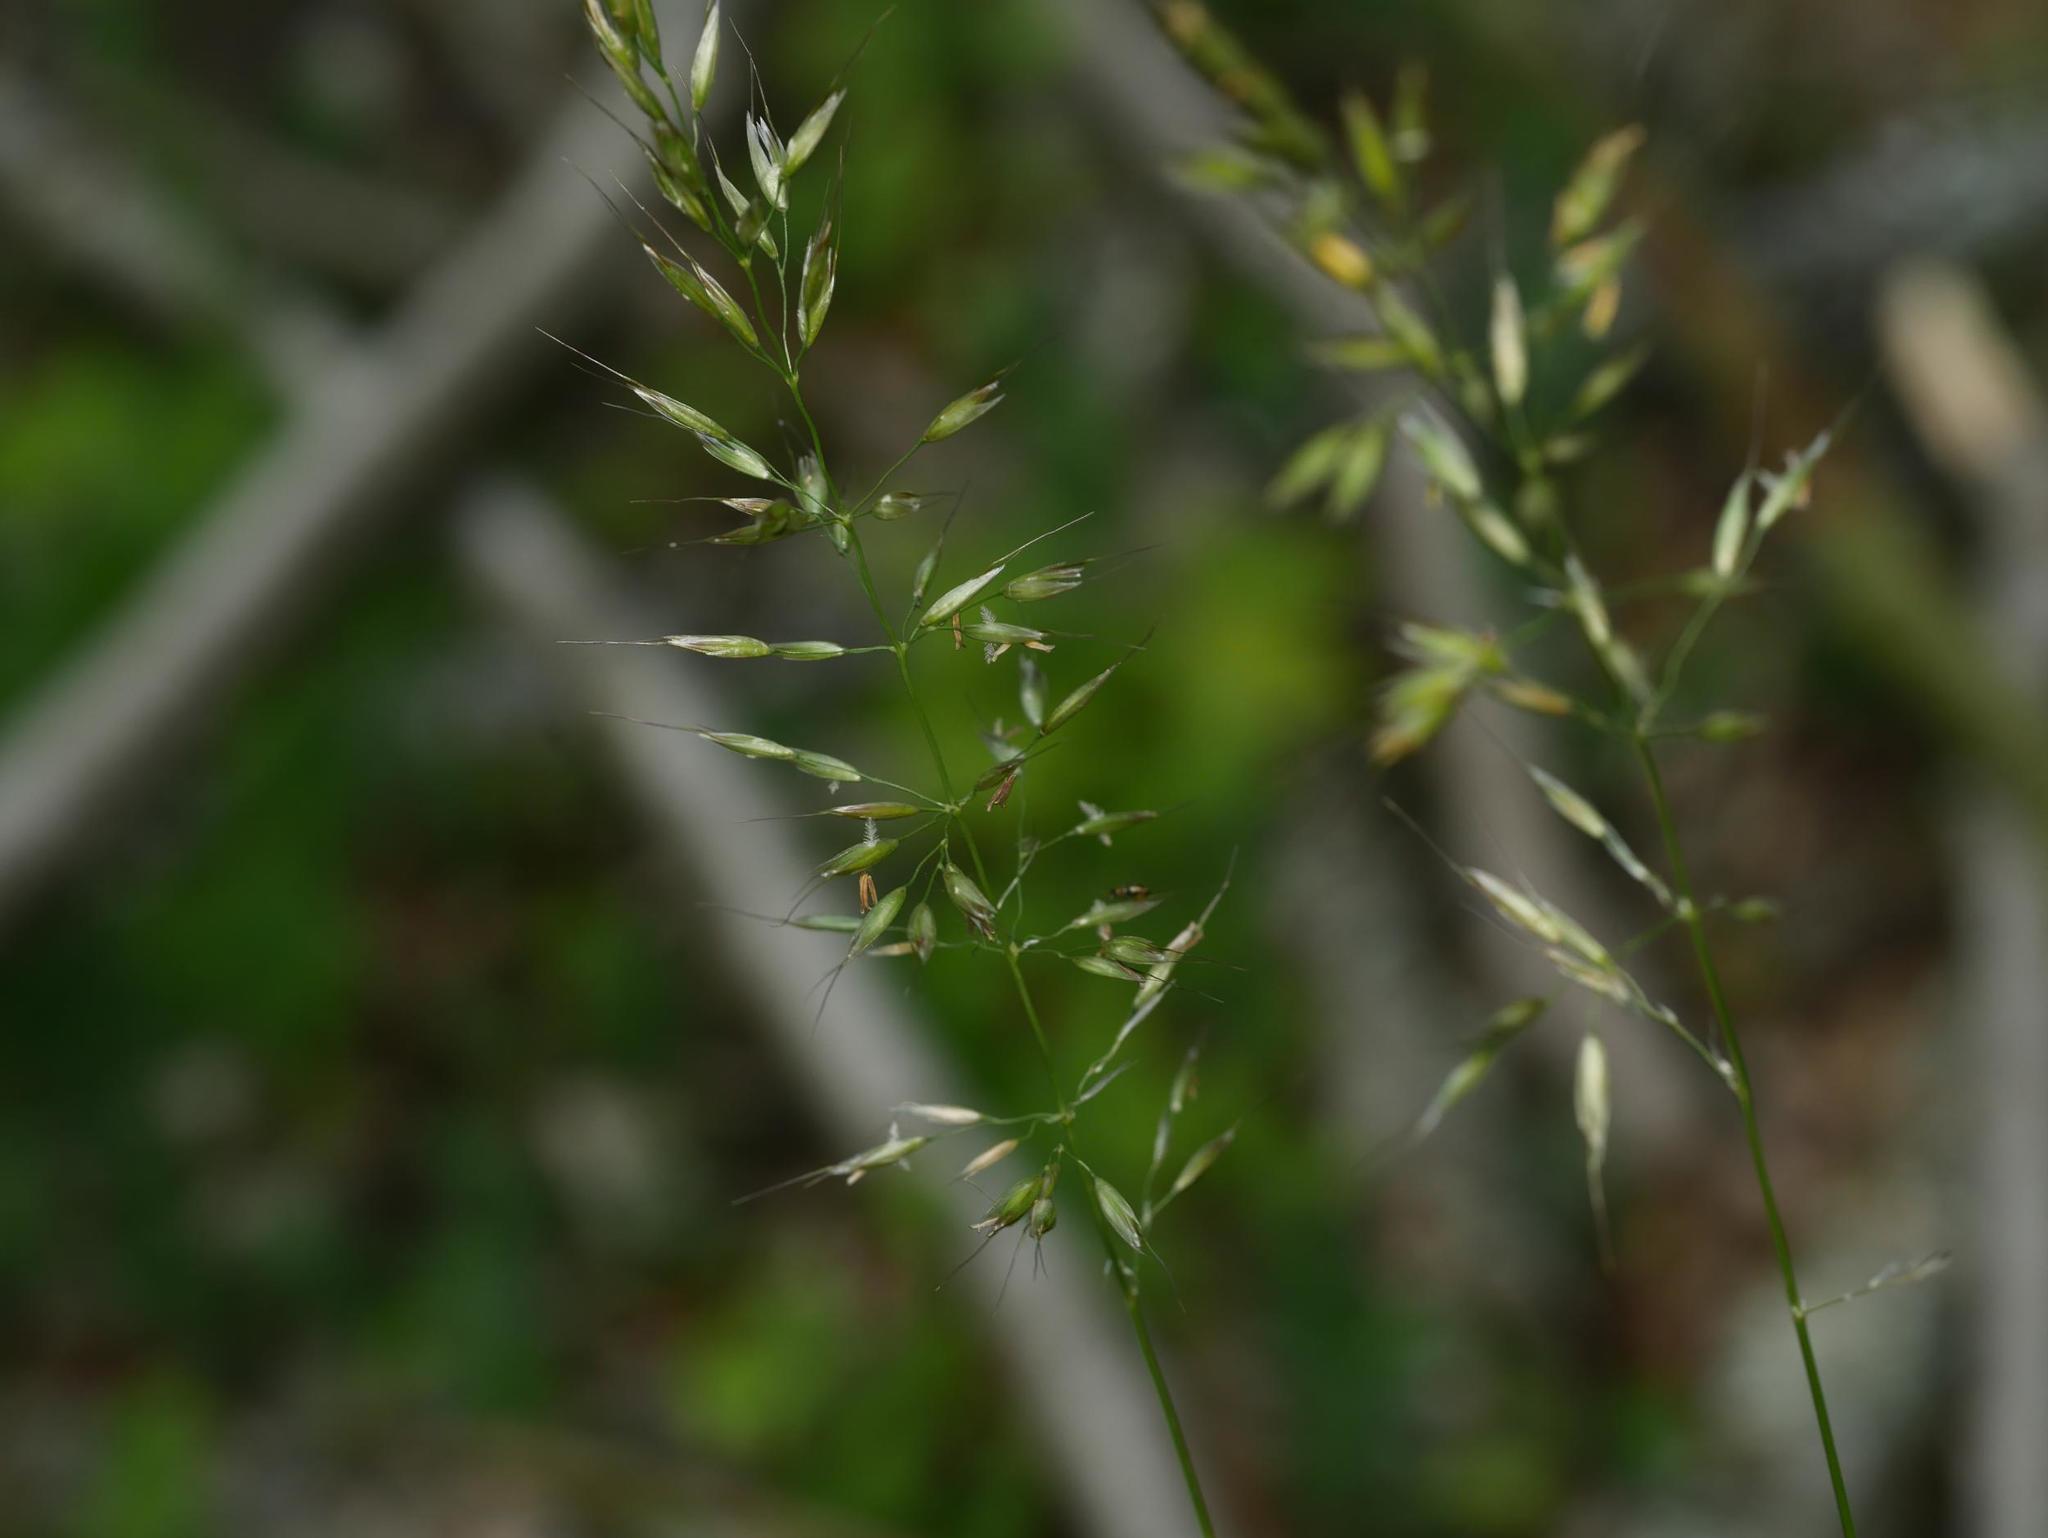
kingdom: Plantae
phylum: Tracheophyta
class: Liliopsida
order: Poales
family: Poaceae
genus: Arrhenatherum
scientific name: Arrhenatherum elatius
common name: Tall oatgrass
